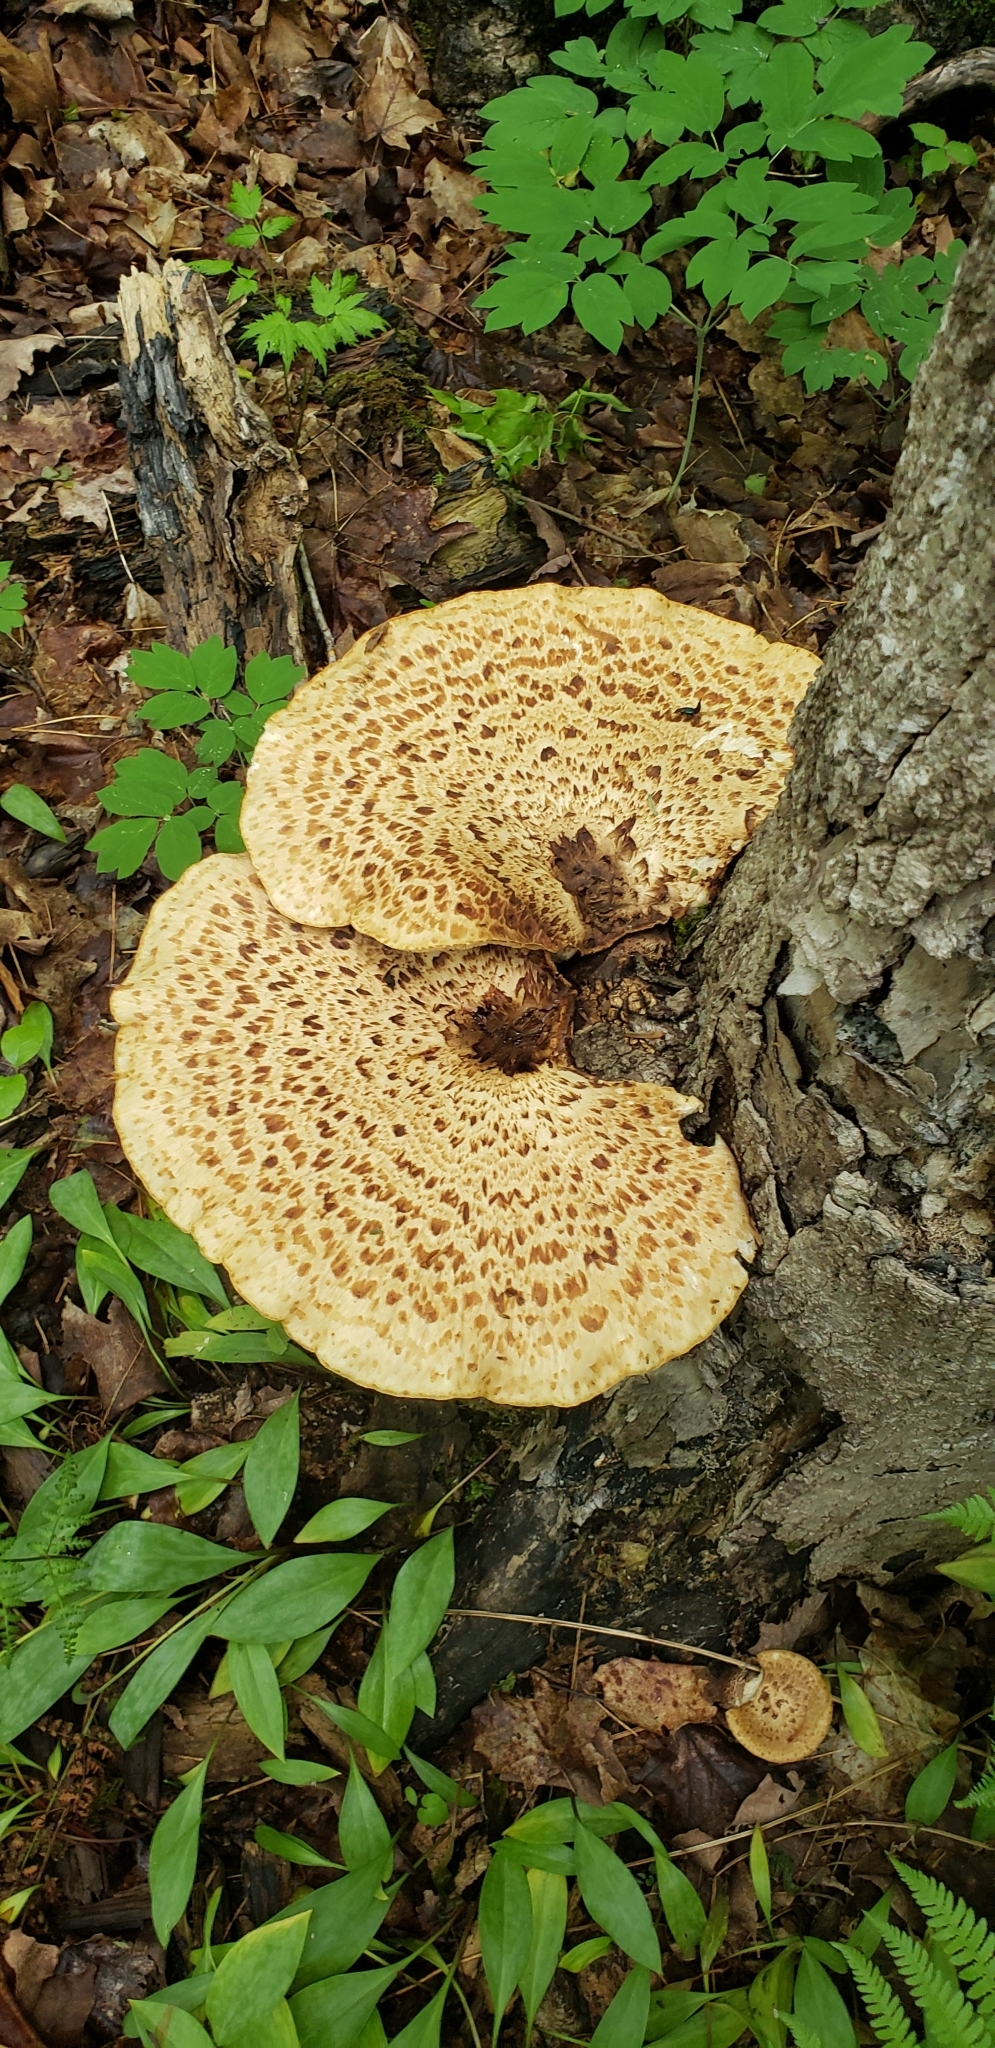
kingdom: Fungi
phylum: Basidiomycota
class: Agaricomycetes
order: Polyporales
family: Polyporaceae
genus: Cerioporus
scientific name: Cerioporus squamosus
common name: Dryad's saddle
